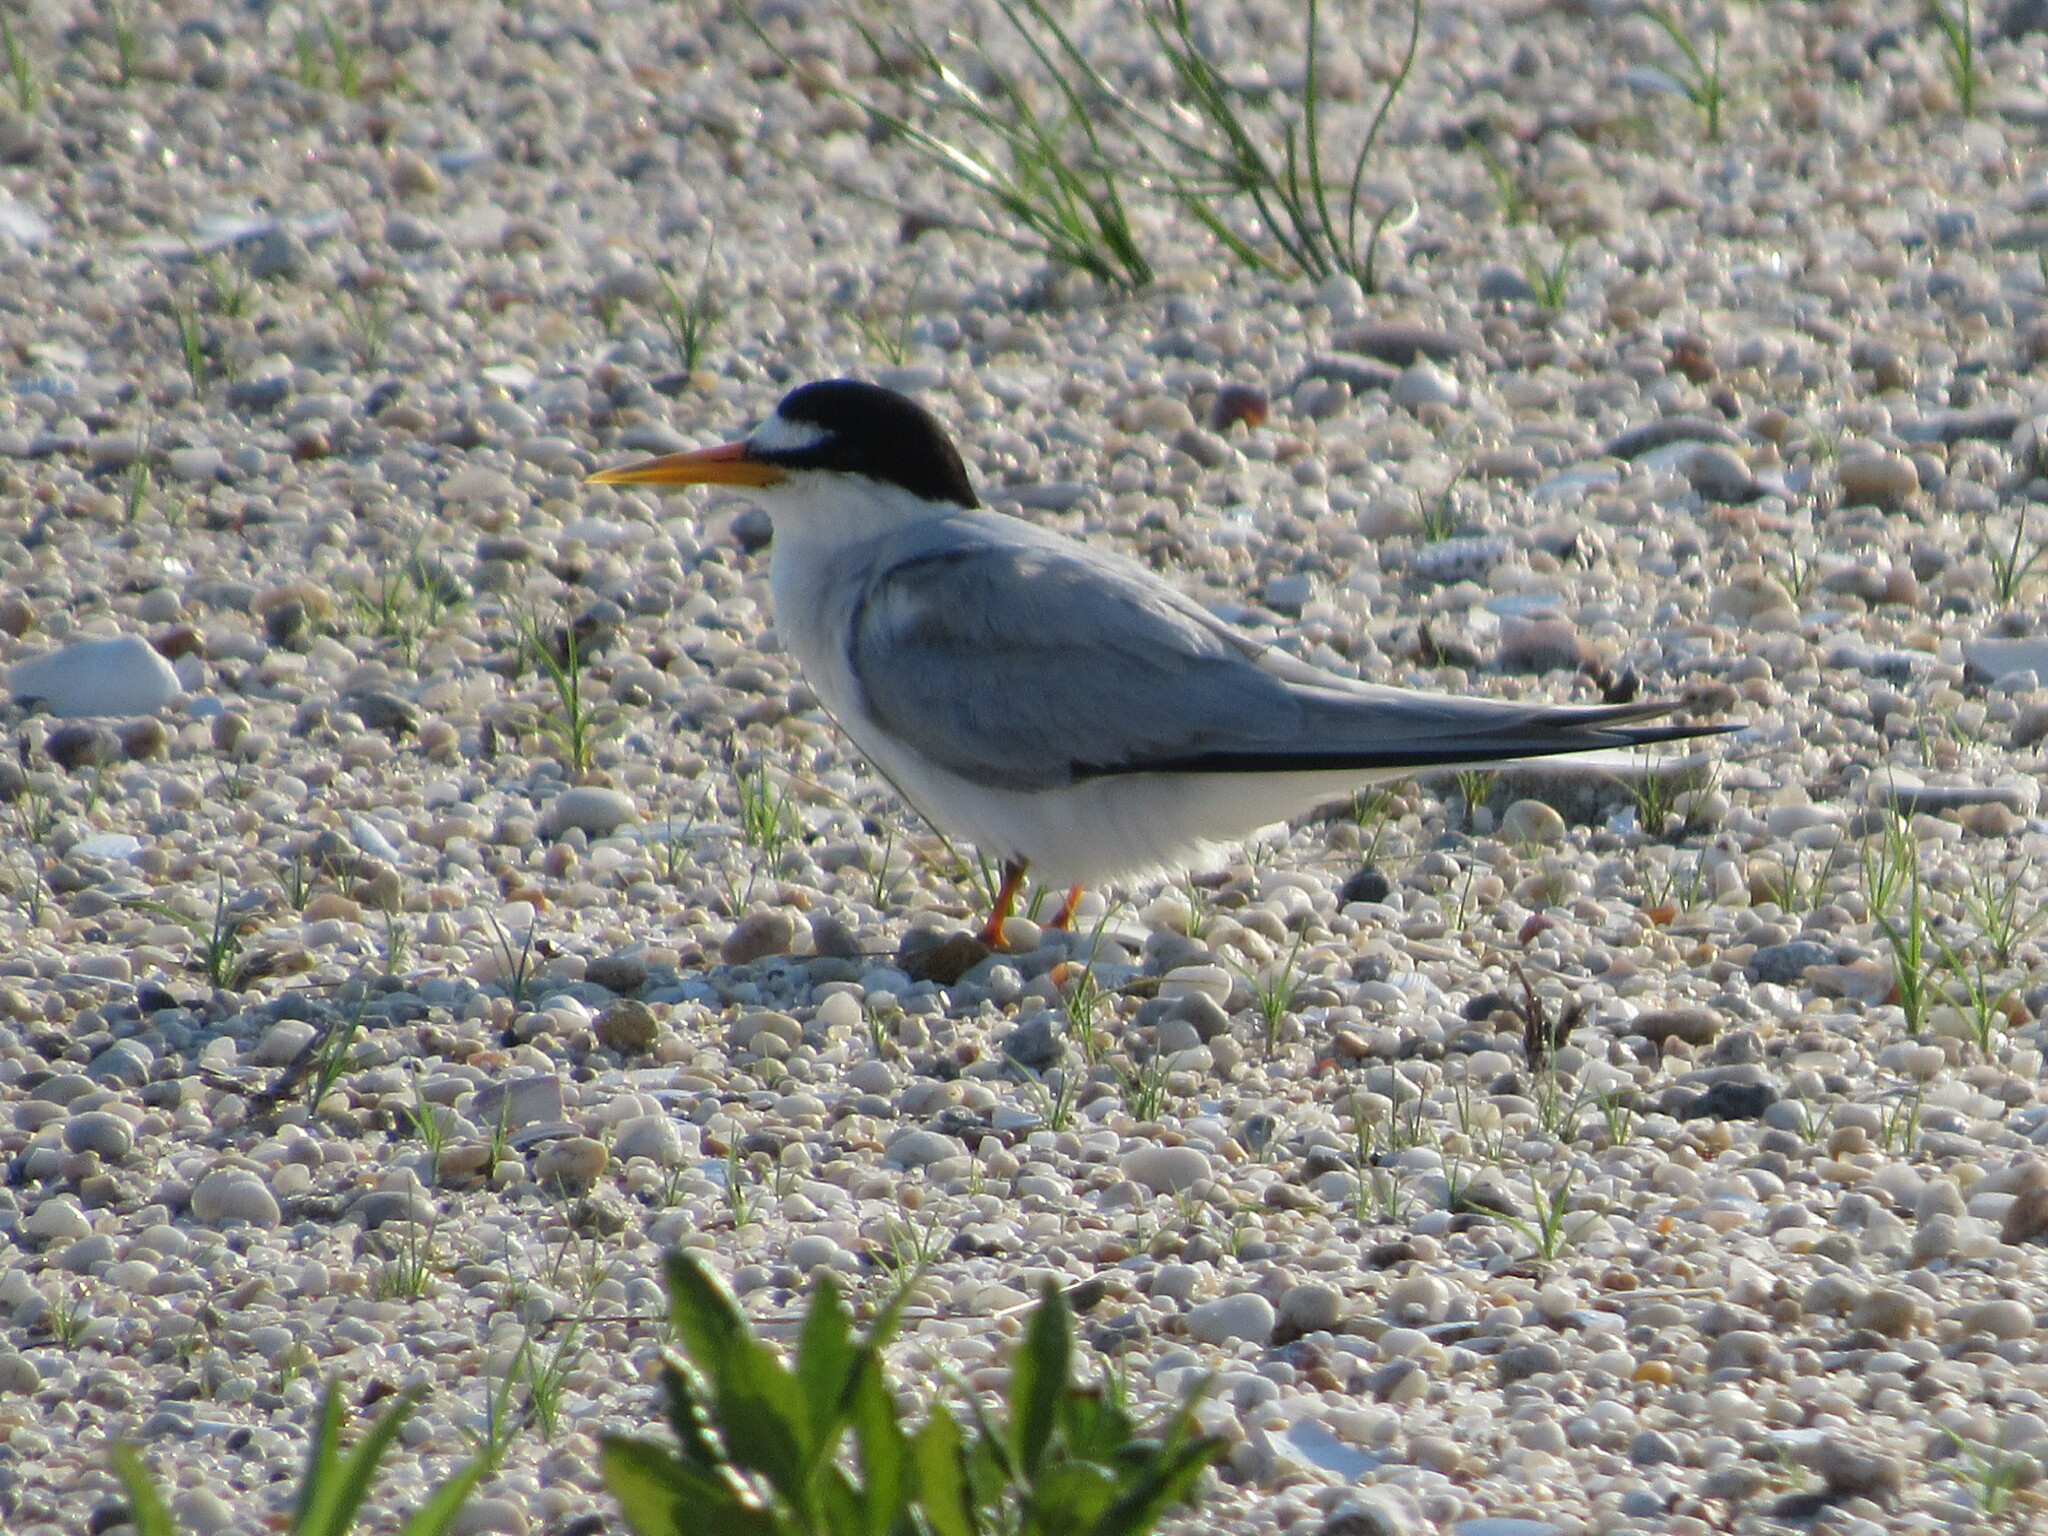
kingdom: Animalia
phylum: Chordata
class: Aves
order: Charadriiformes
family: Laridae
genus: Sternula
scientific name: Sternula antillarum
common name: Least tern
